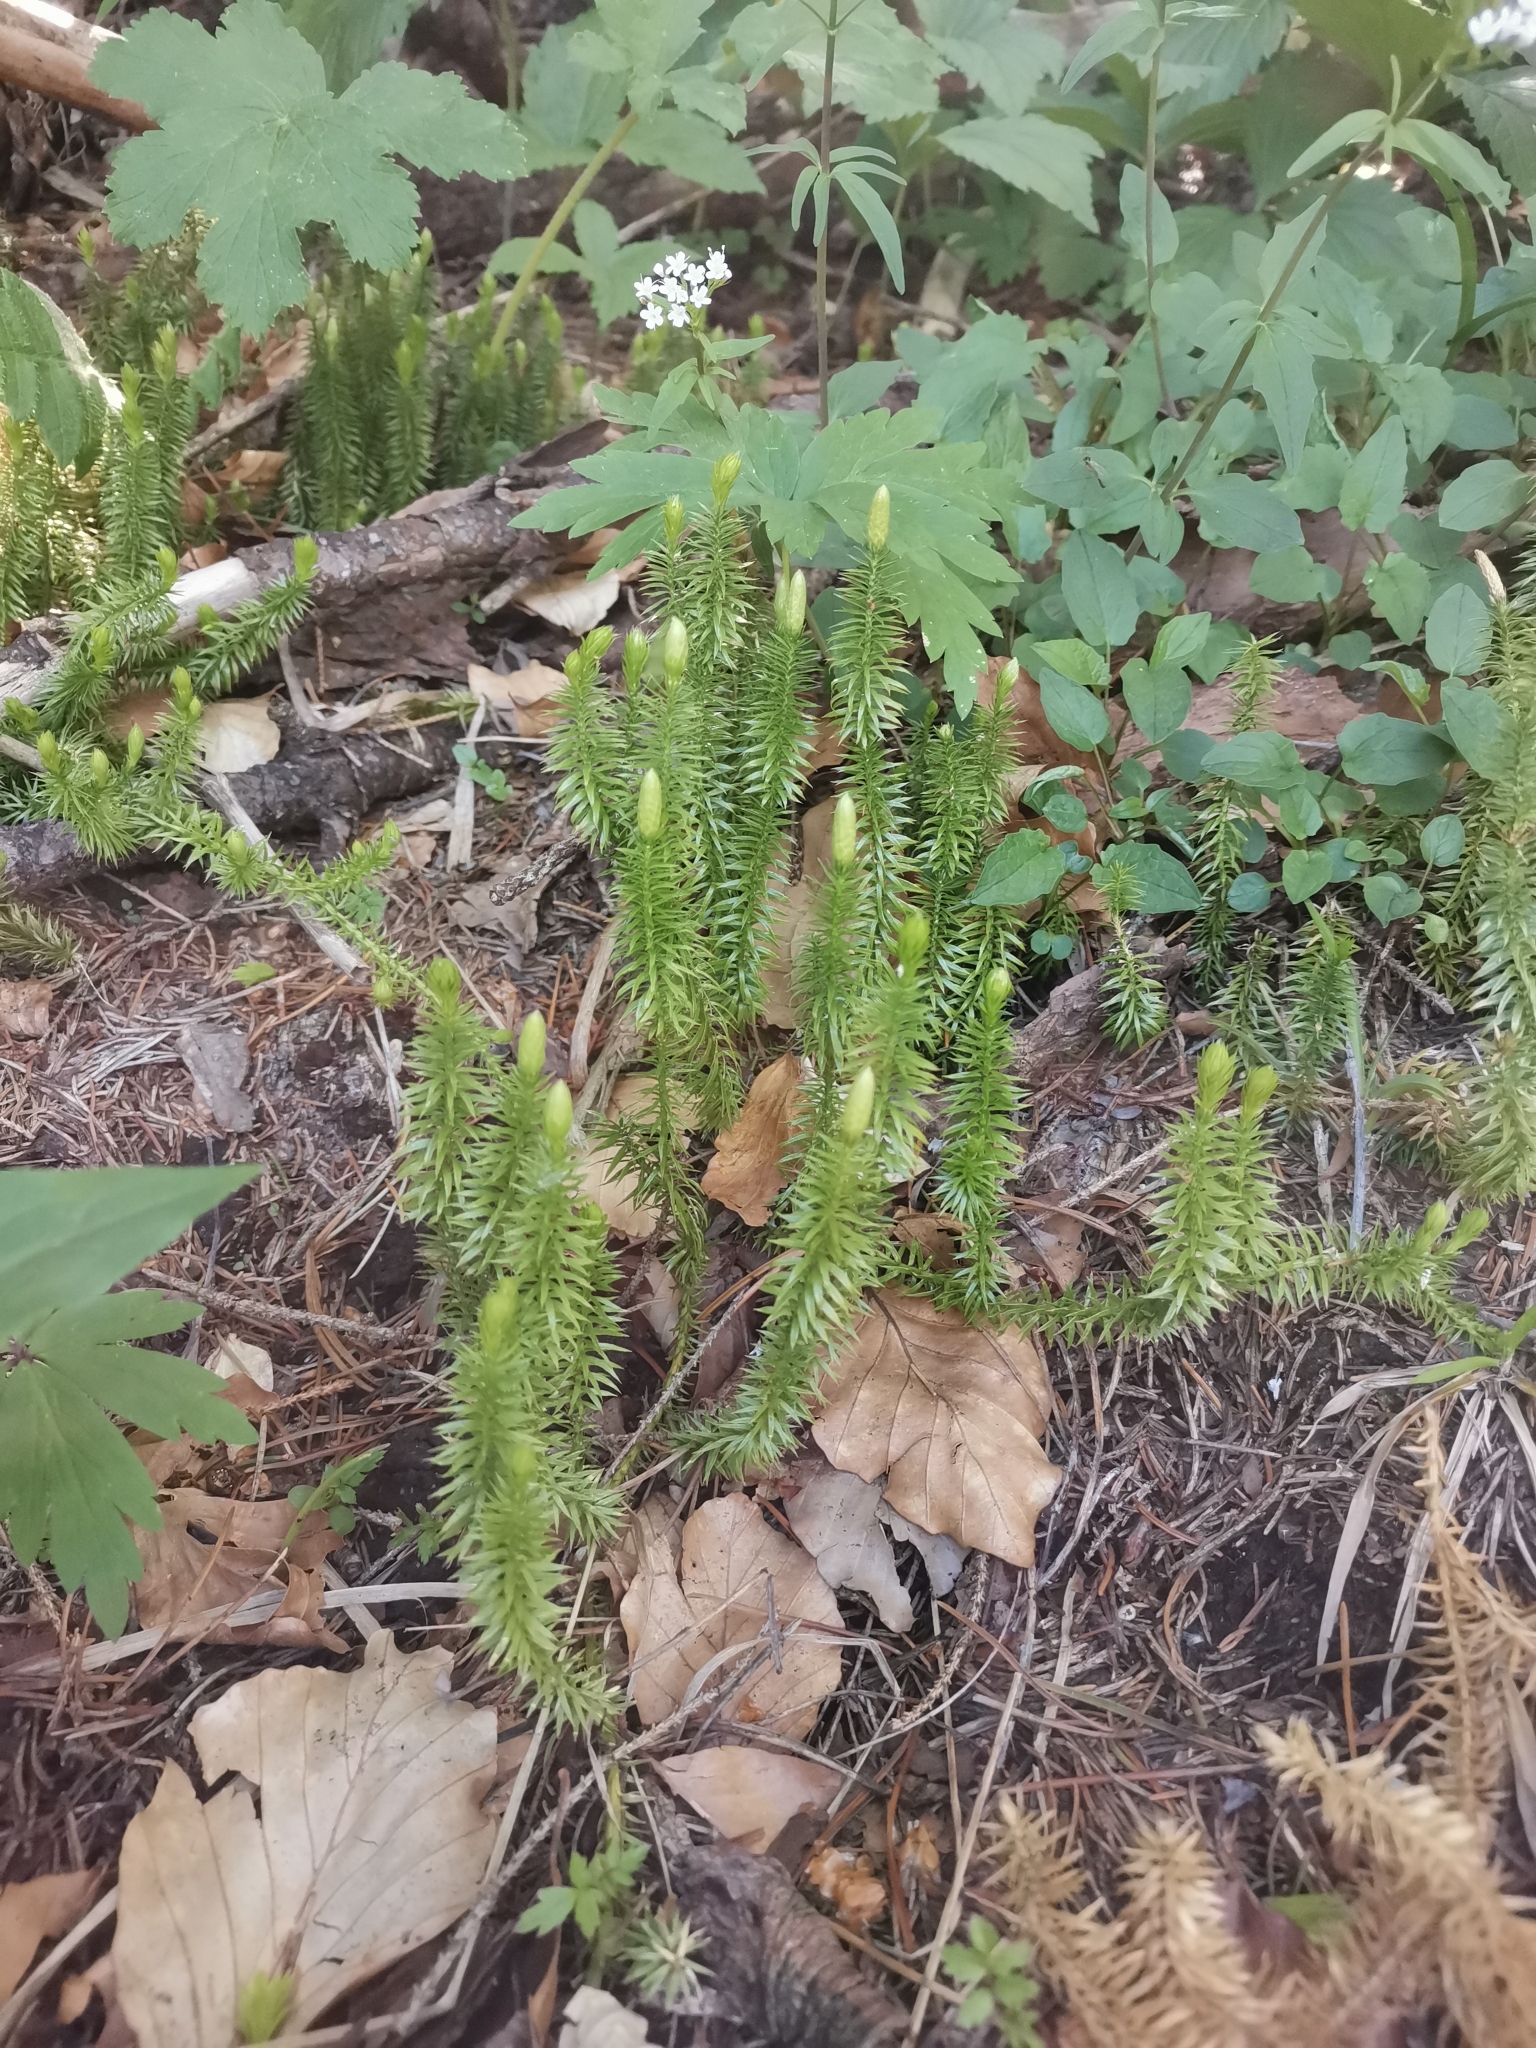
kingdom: Plantae
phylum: Tracheophyta
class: Lycopodiopsida
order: Lycopodiales
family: Lycopodiaceae
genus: Spinulum
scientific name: Spinulum annotinum
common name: Interrupted club-moss
